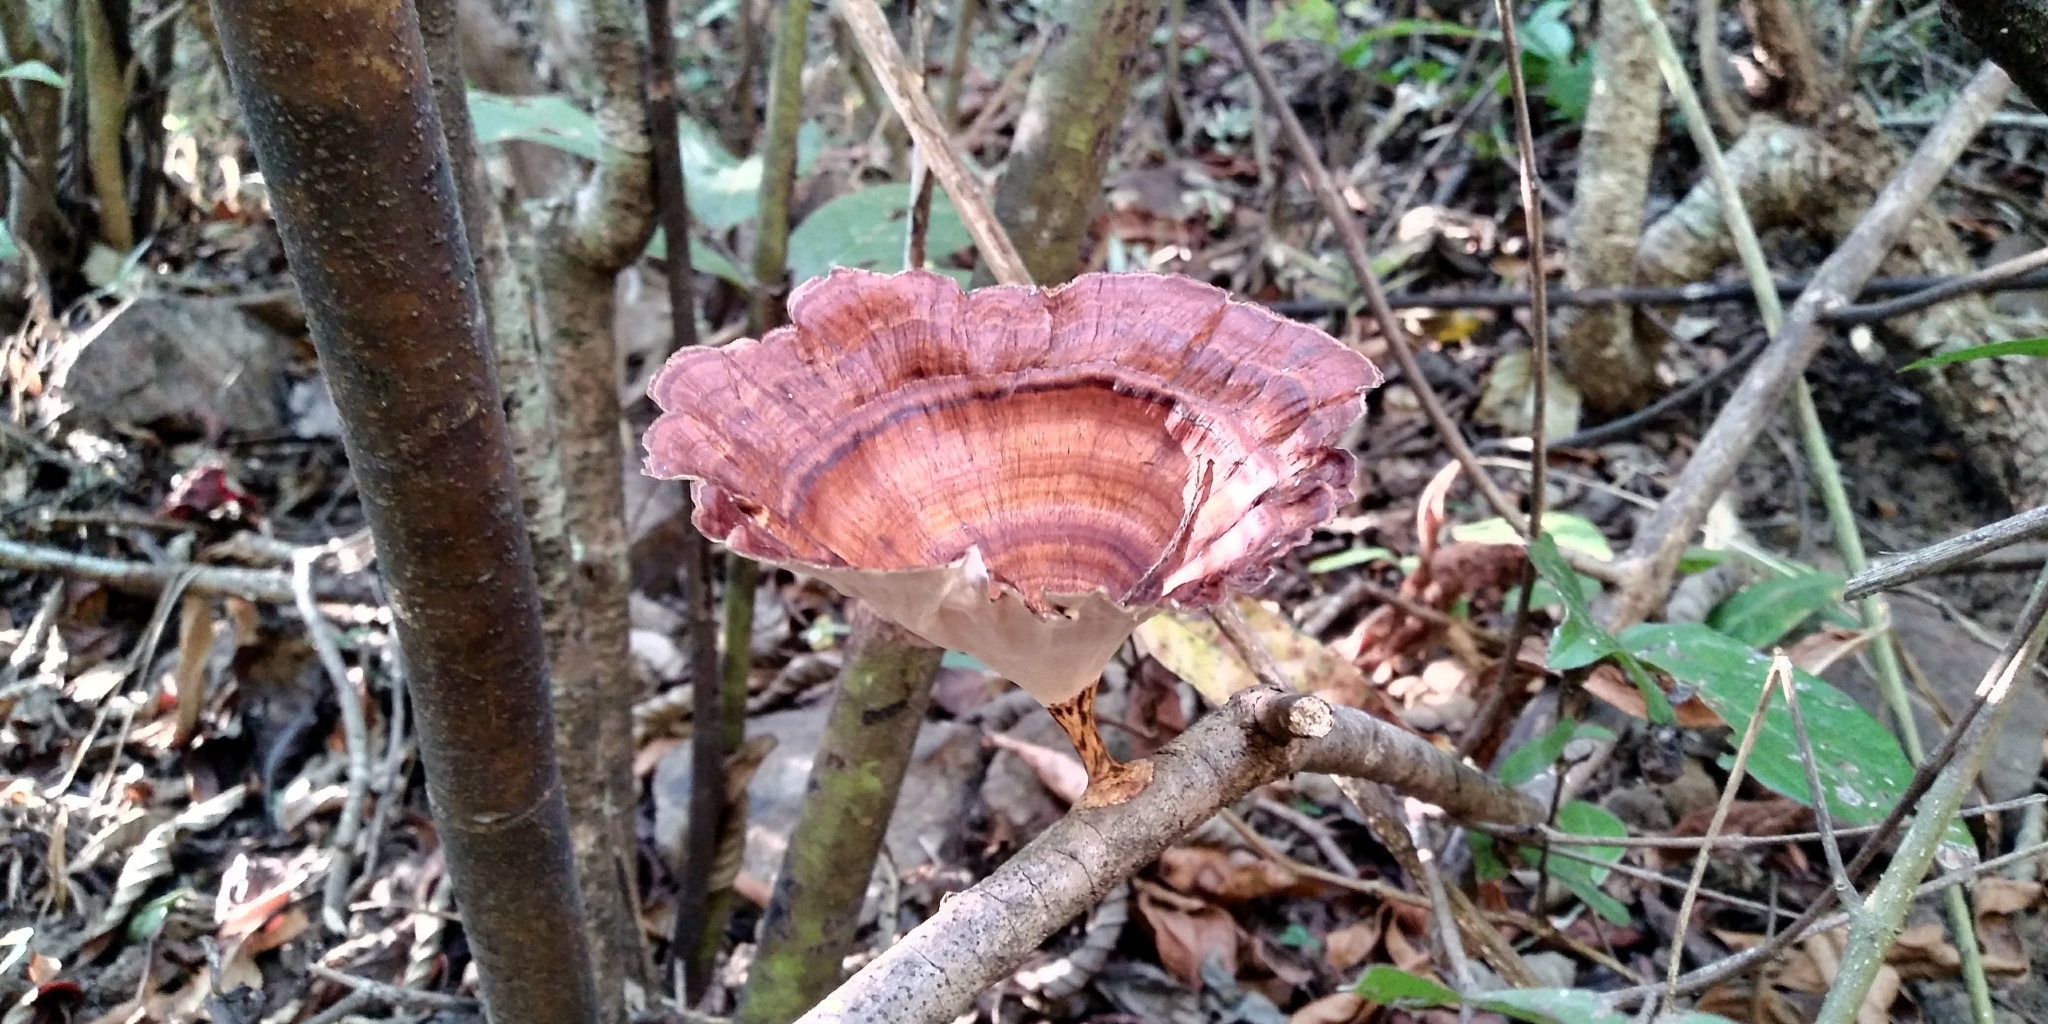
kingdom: Fungi
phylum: Basidiomycota
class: Agaricomycetes
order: Polyporales
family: Polyporaceae
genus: Microporus
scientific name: Microporus xanthopus
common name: Yellow-stemmed micropore
